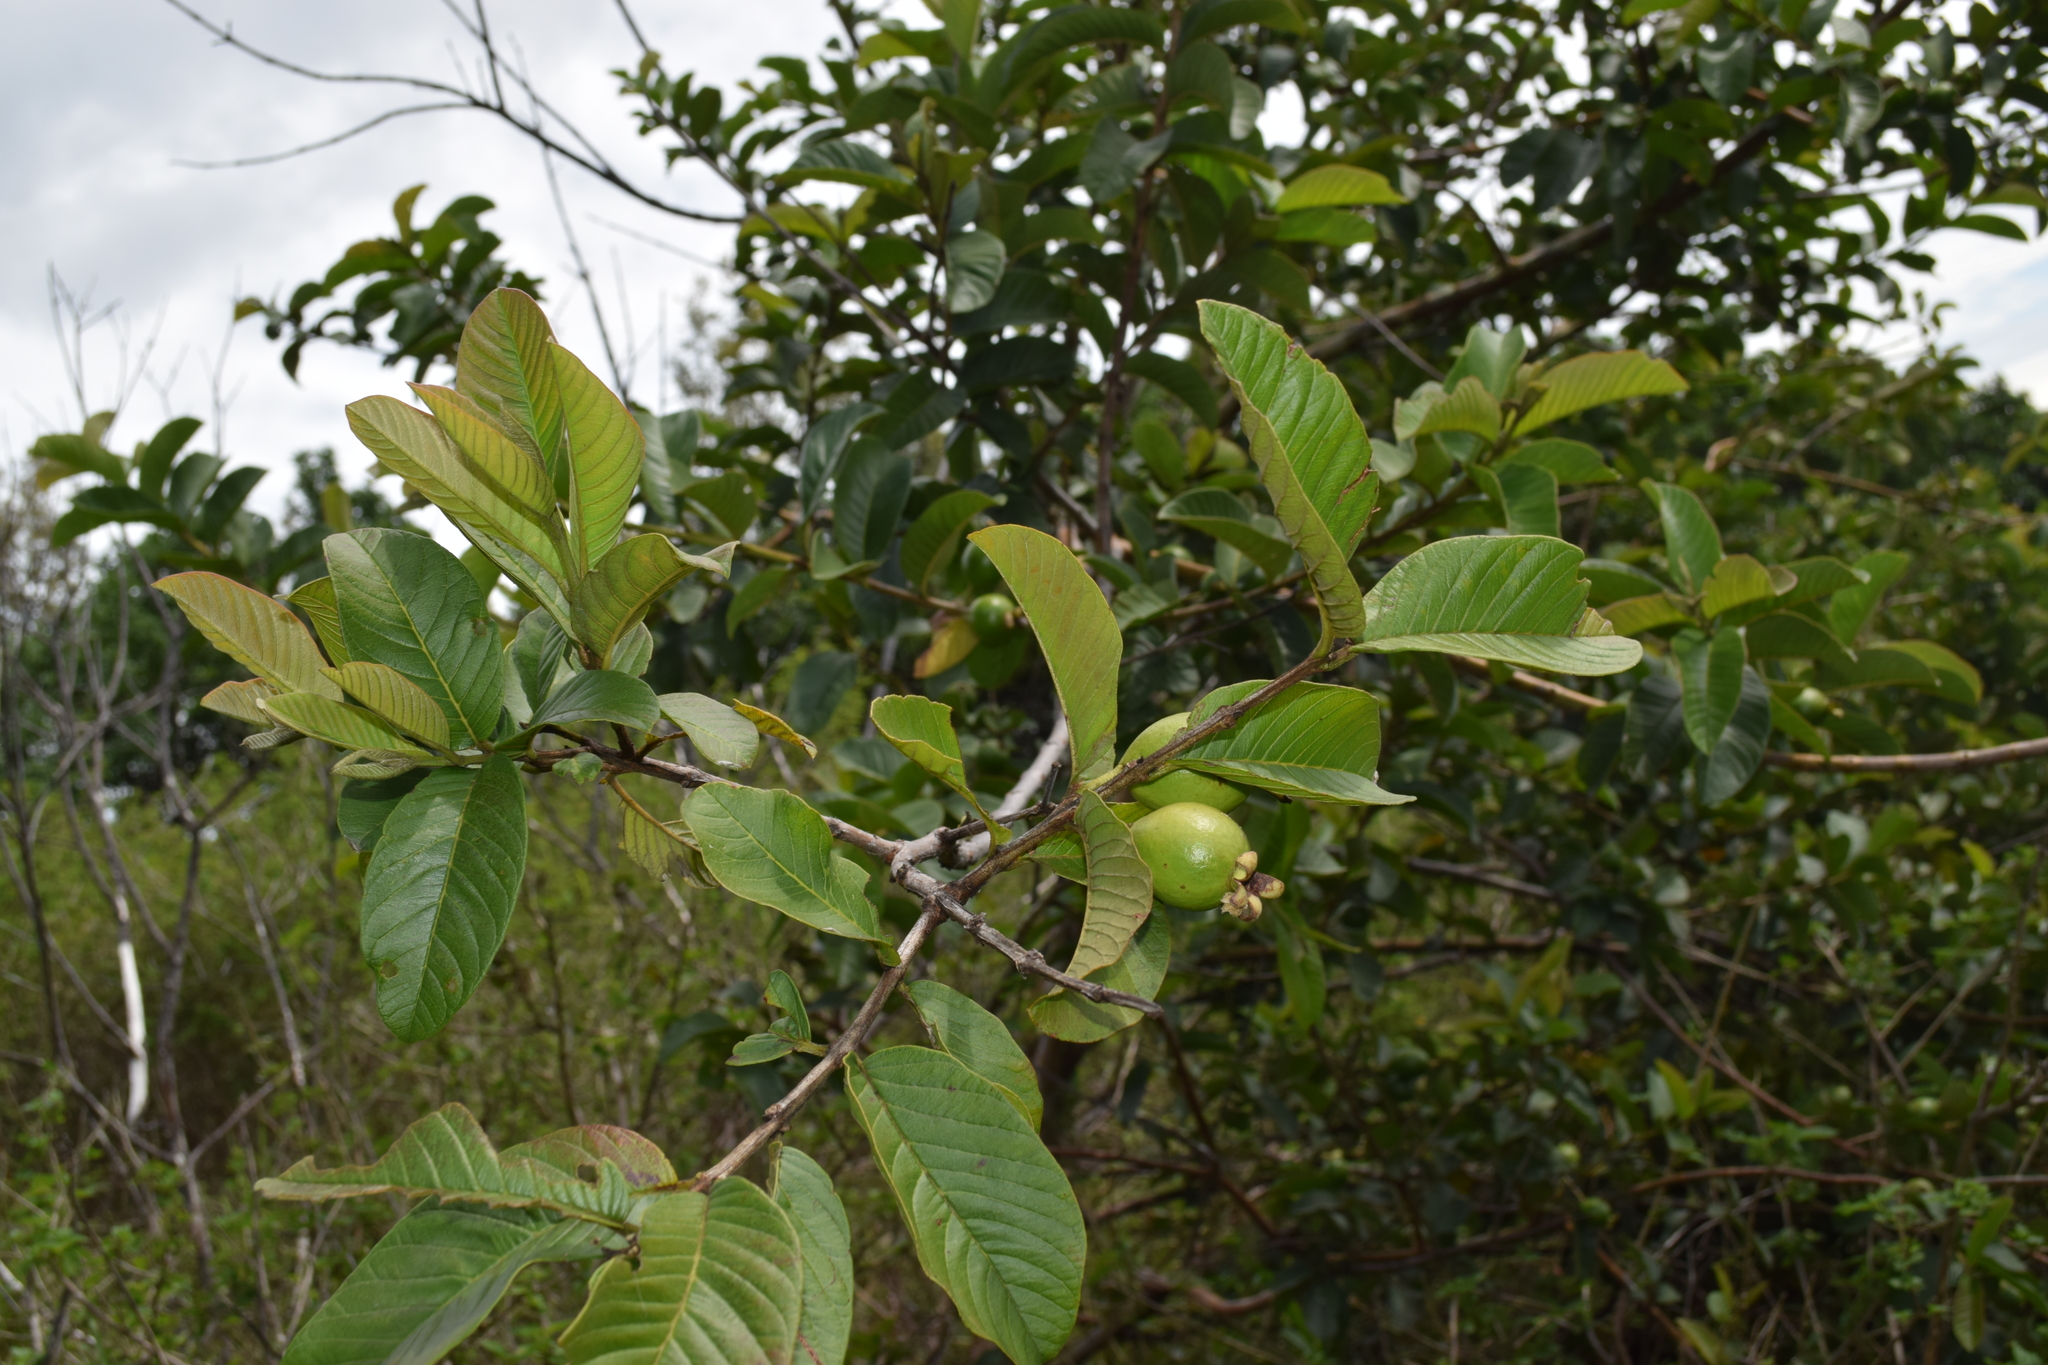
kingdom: Plantae
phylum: Tracheophyta
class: Magnoliopsida
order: Myrtales
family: Myrtaceae
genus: Psidium
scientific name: Psidium guajava
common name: Guava
